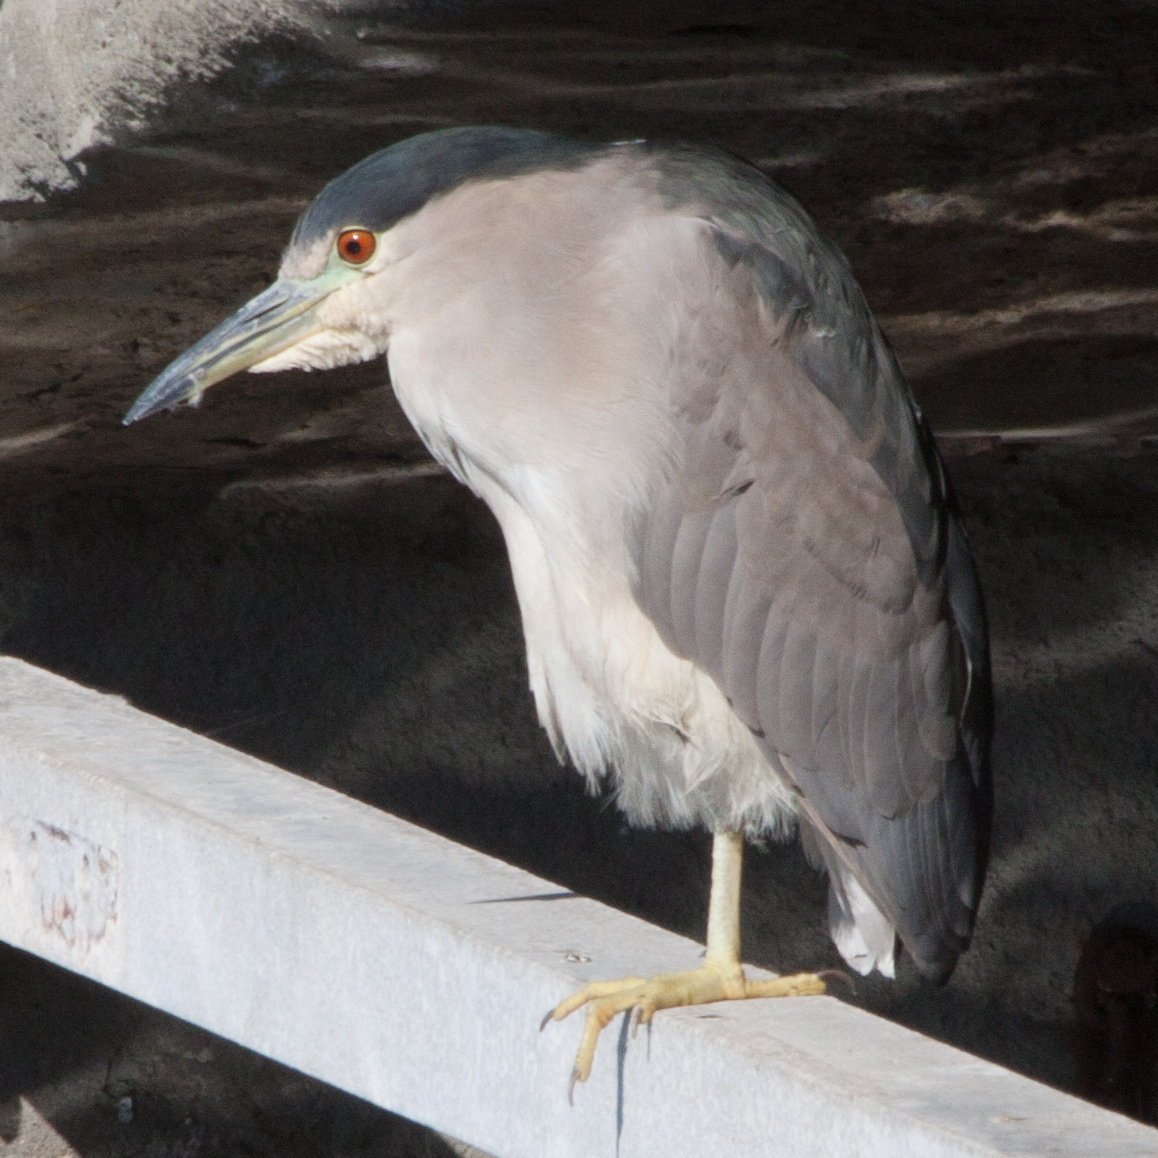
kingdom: Animalia
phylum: Chordata
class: Aves
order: Pelecaniformes
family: Ardeidae
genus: Nycticorax
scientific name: Nycticorax nycticorax
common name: Black-crowned night heron
